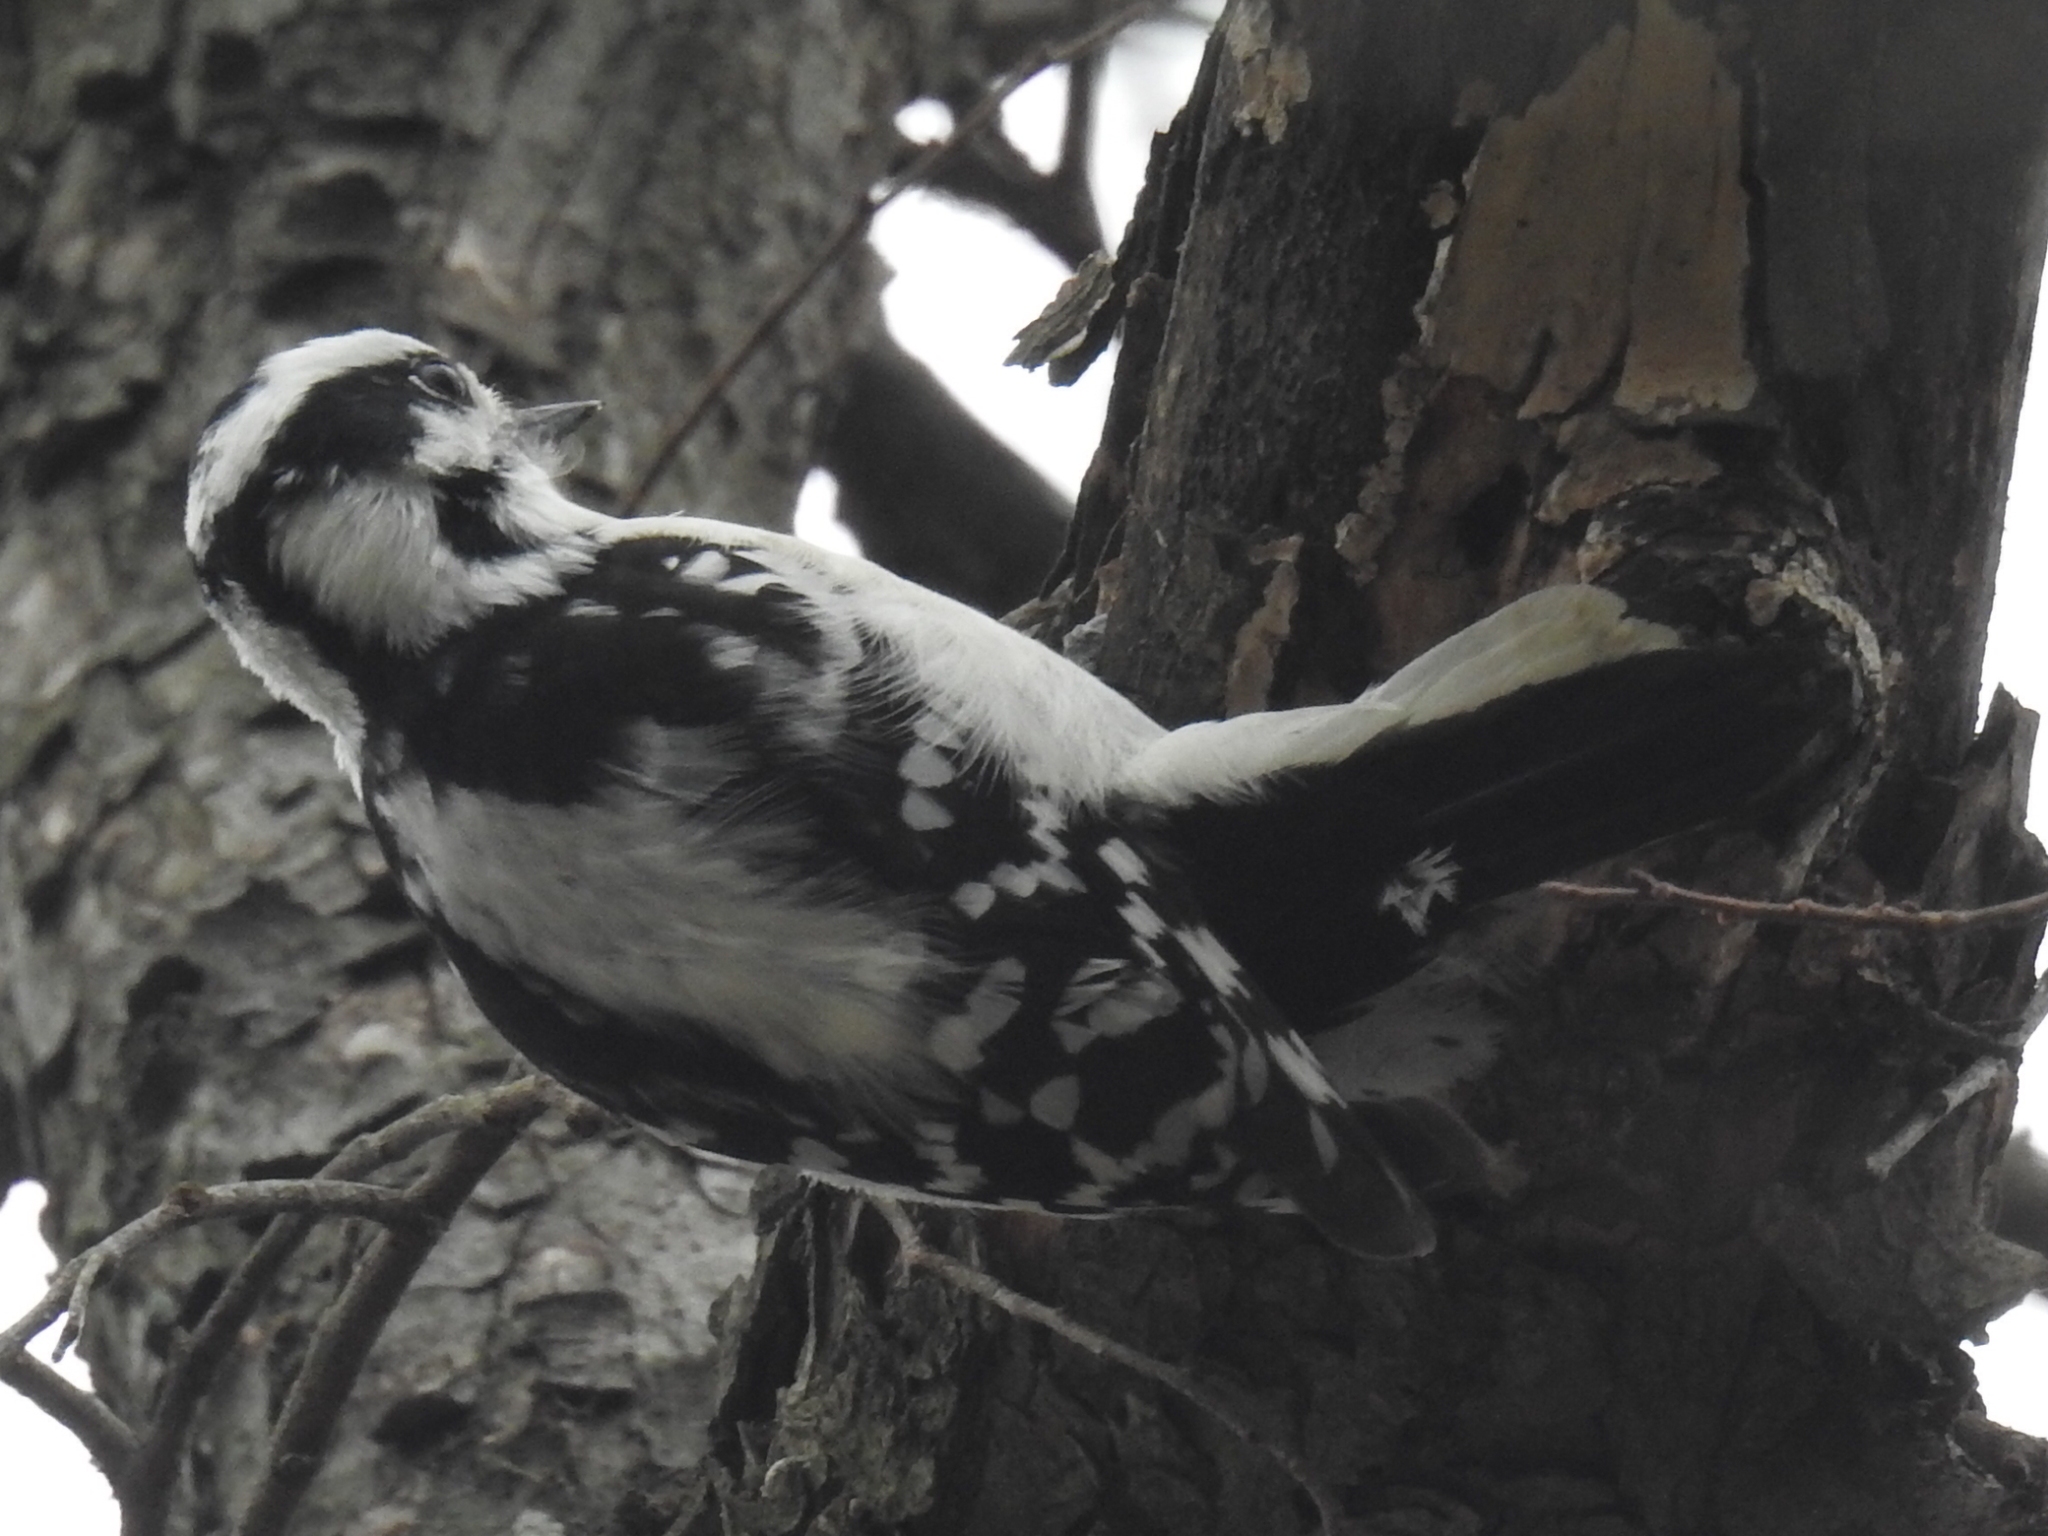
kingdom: Animalia
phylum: Chordata
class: Aves
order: Piciformes
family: Picidae
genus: Dryobates
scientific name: Dryobates pubescens
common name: Downy woodpecker
